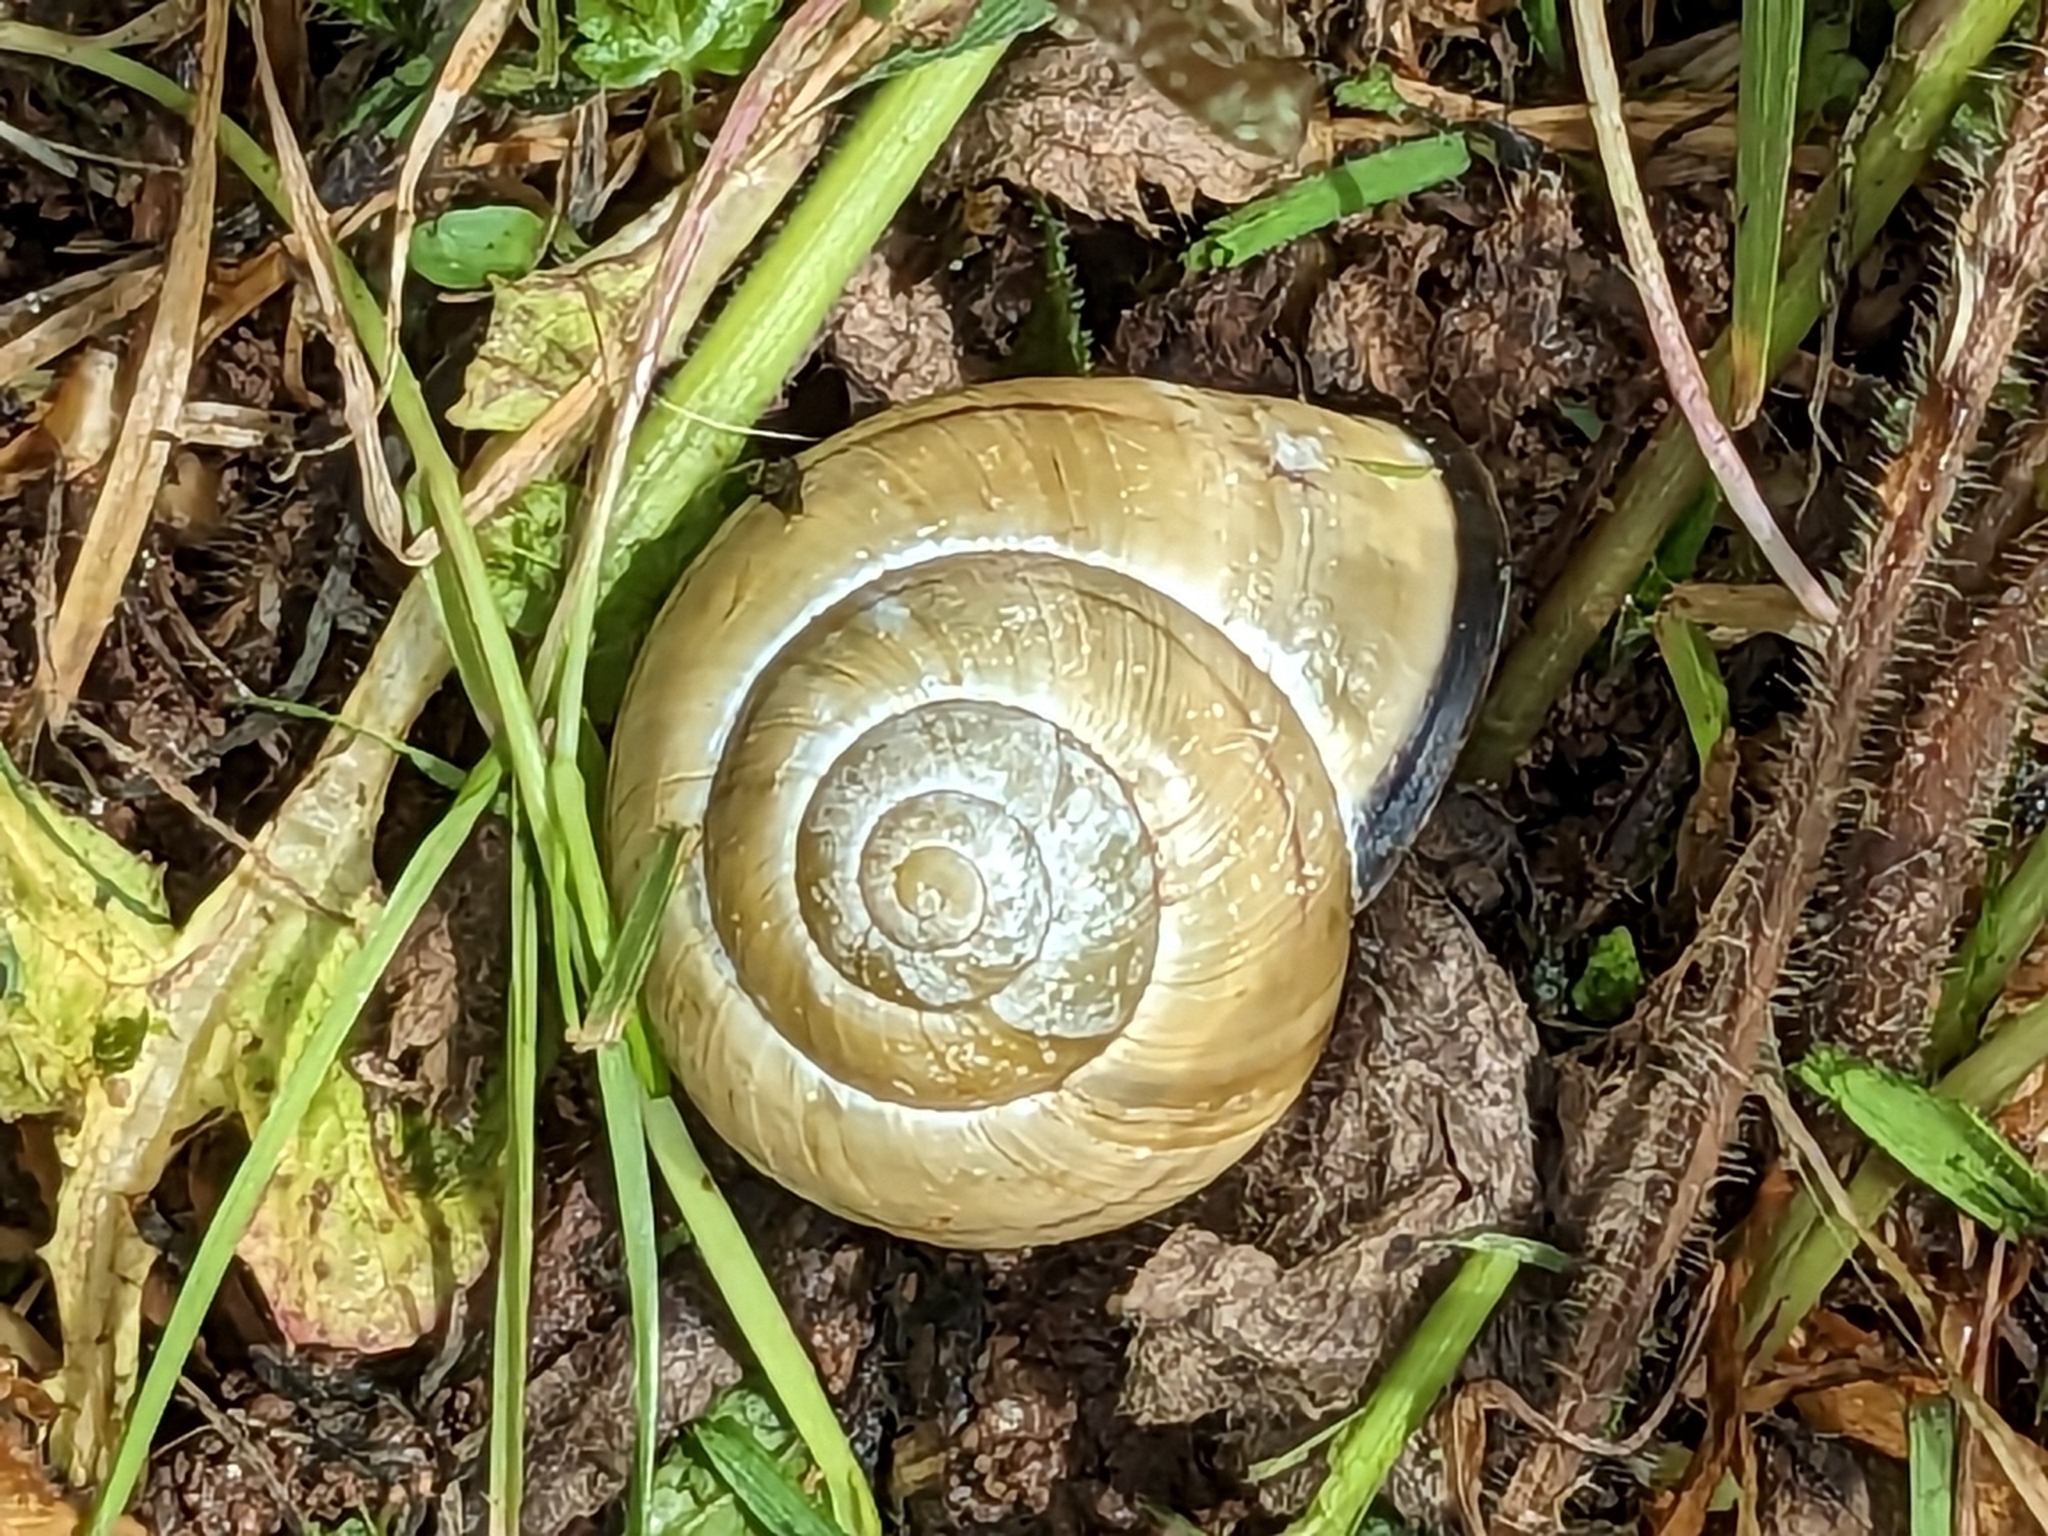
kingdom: Animalia
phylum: Mollusca
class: Gastropoda
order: Stylommatophora
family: Helicidae
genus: Cepaea
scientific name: Cepaea nemoralis
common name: Grovesnail
